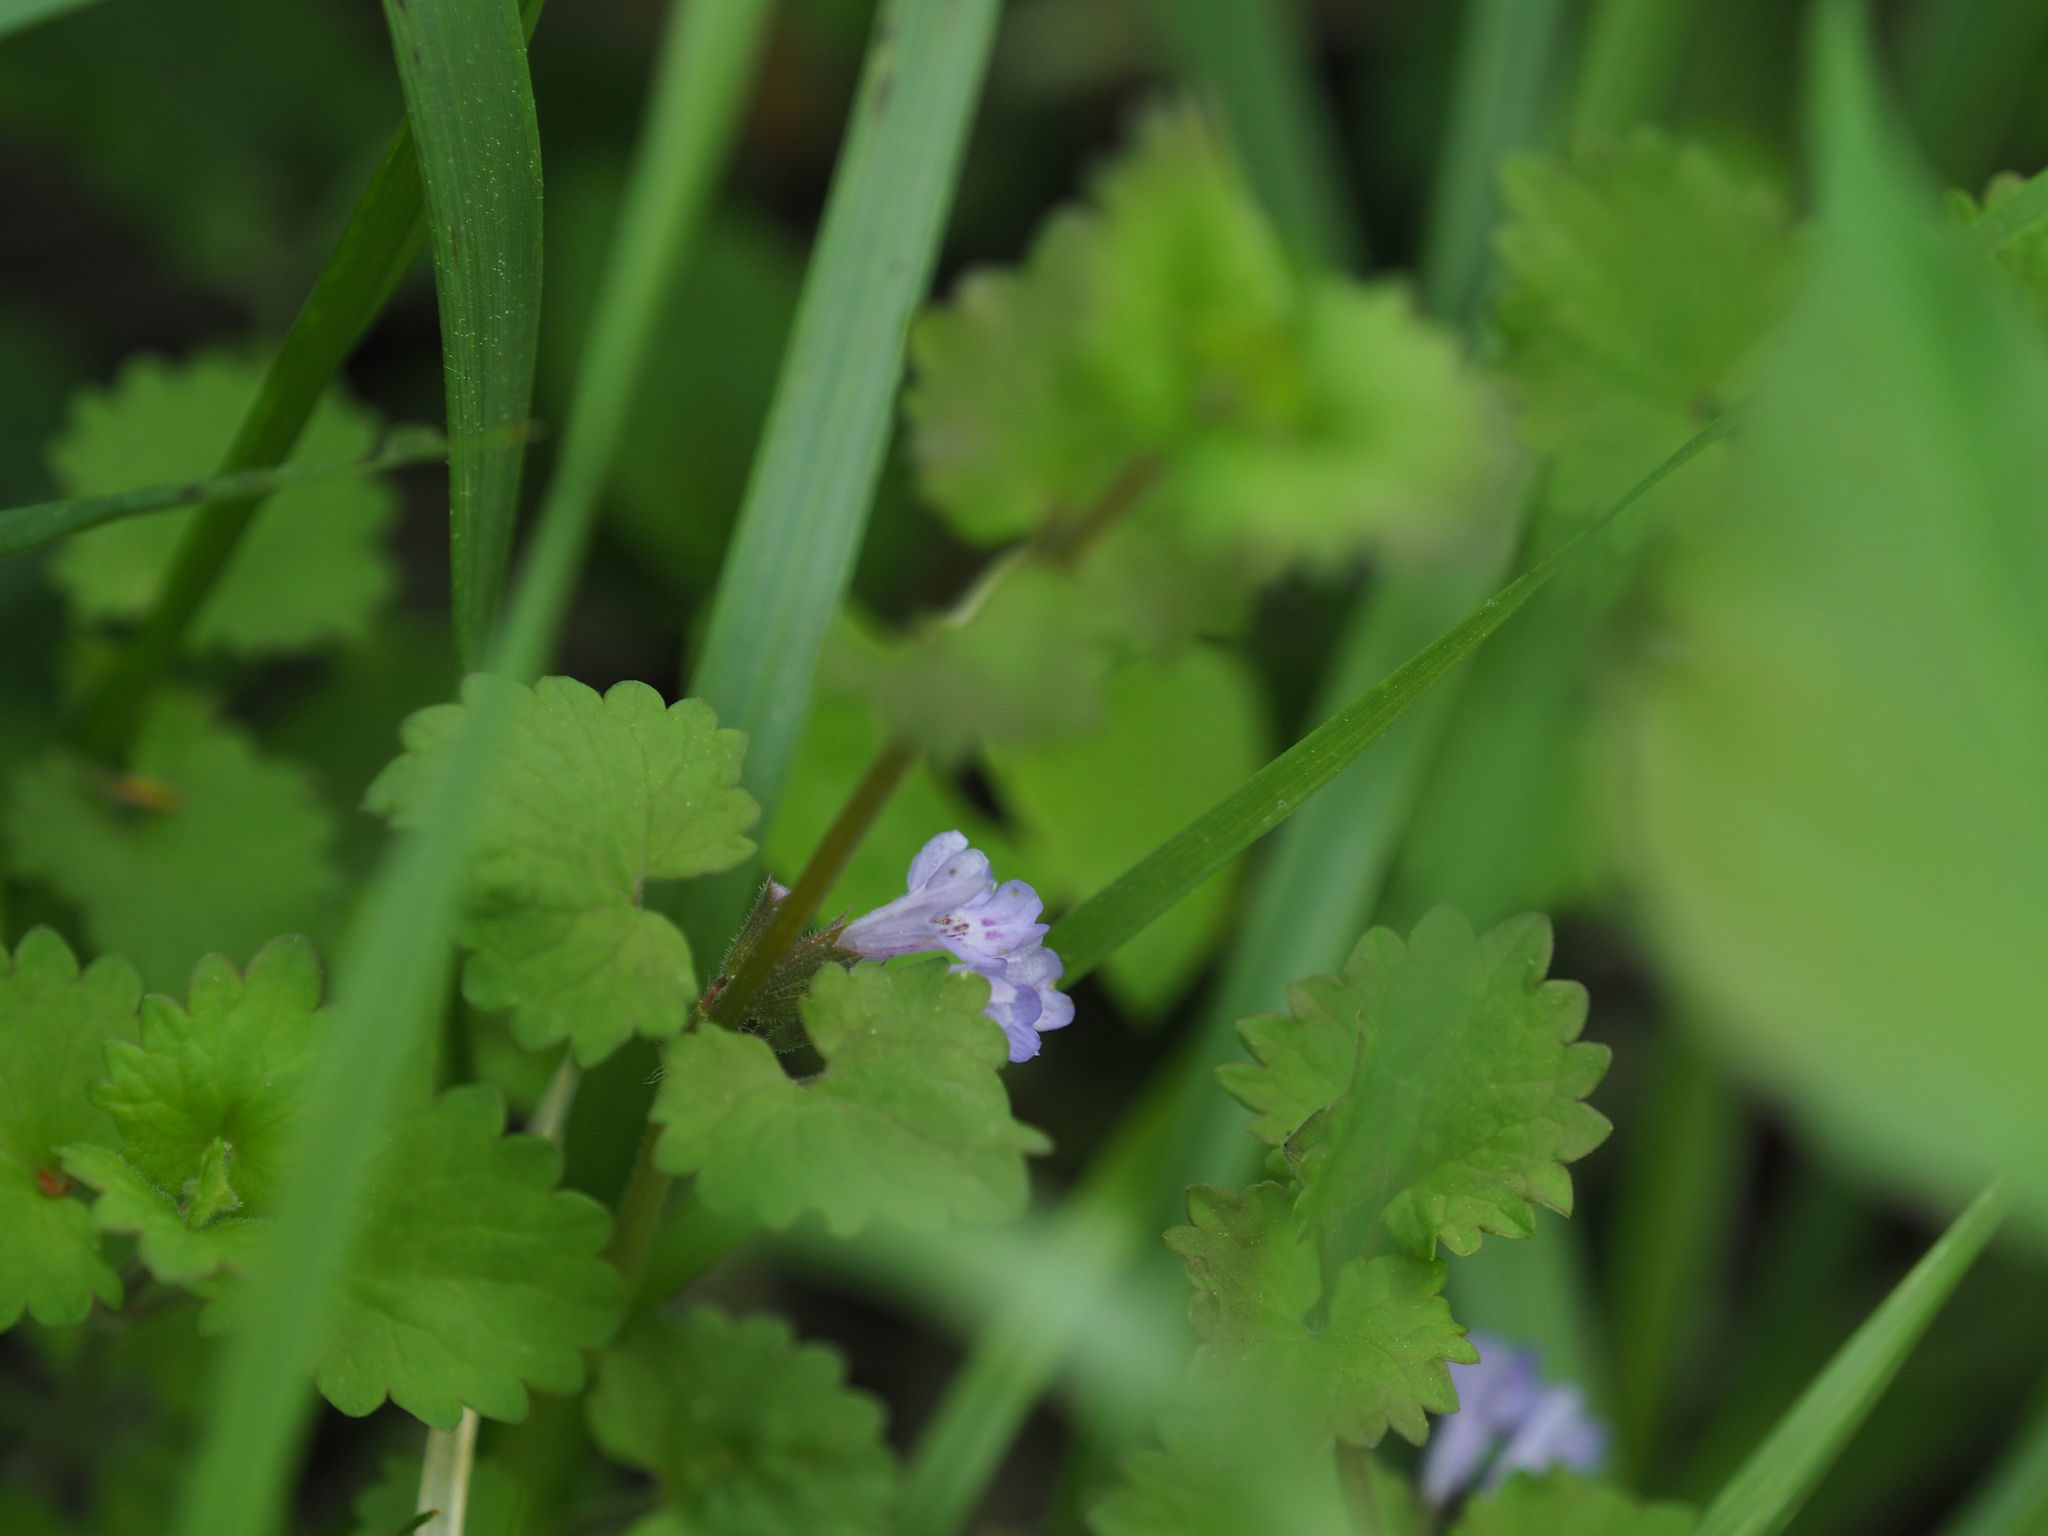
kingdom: Plantae
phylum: Tracheophyta
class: Magnoliopsida
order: Lamiales
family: Lamiaceae
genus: Glechoma
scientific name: Glechoma hederacea
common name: Ground ivy
